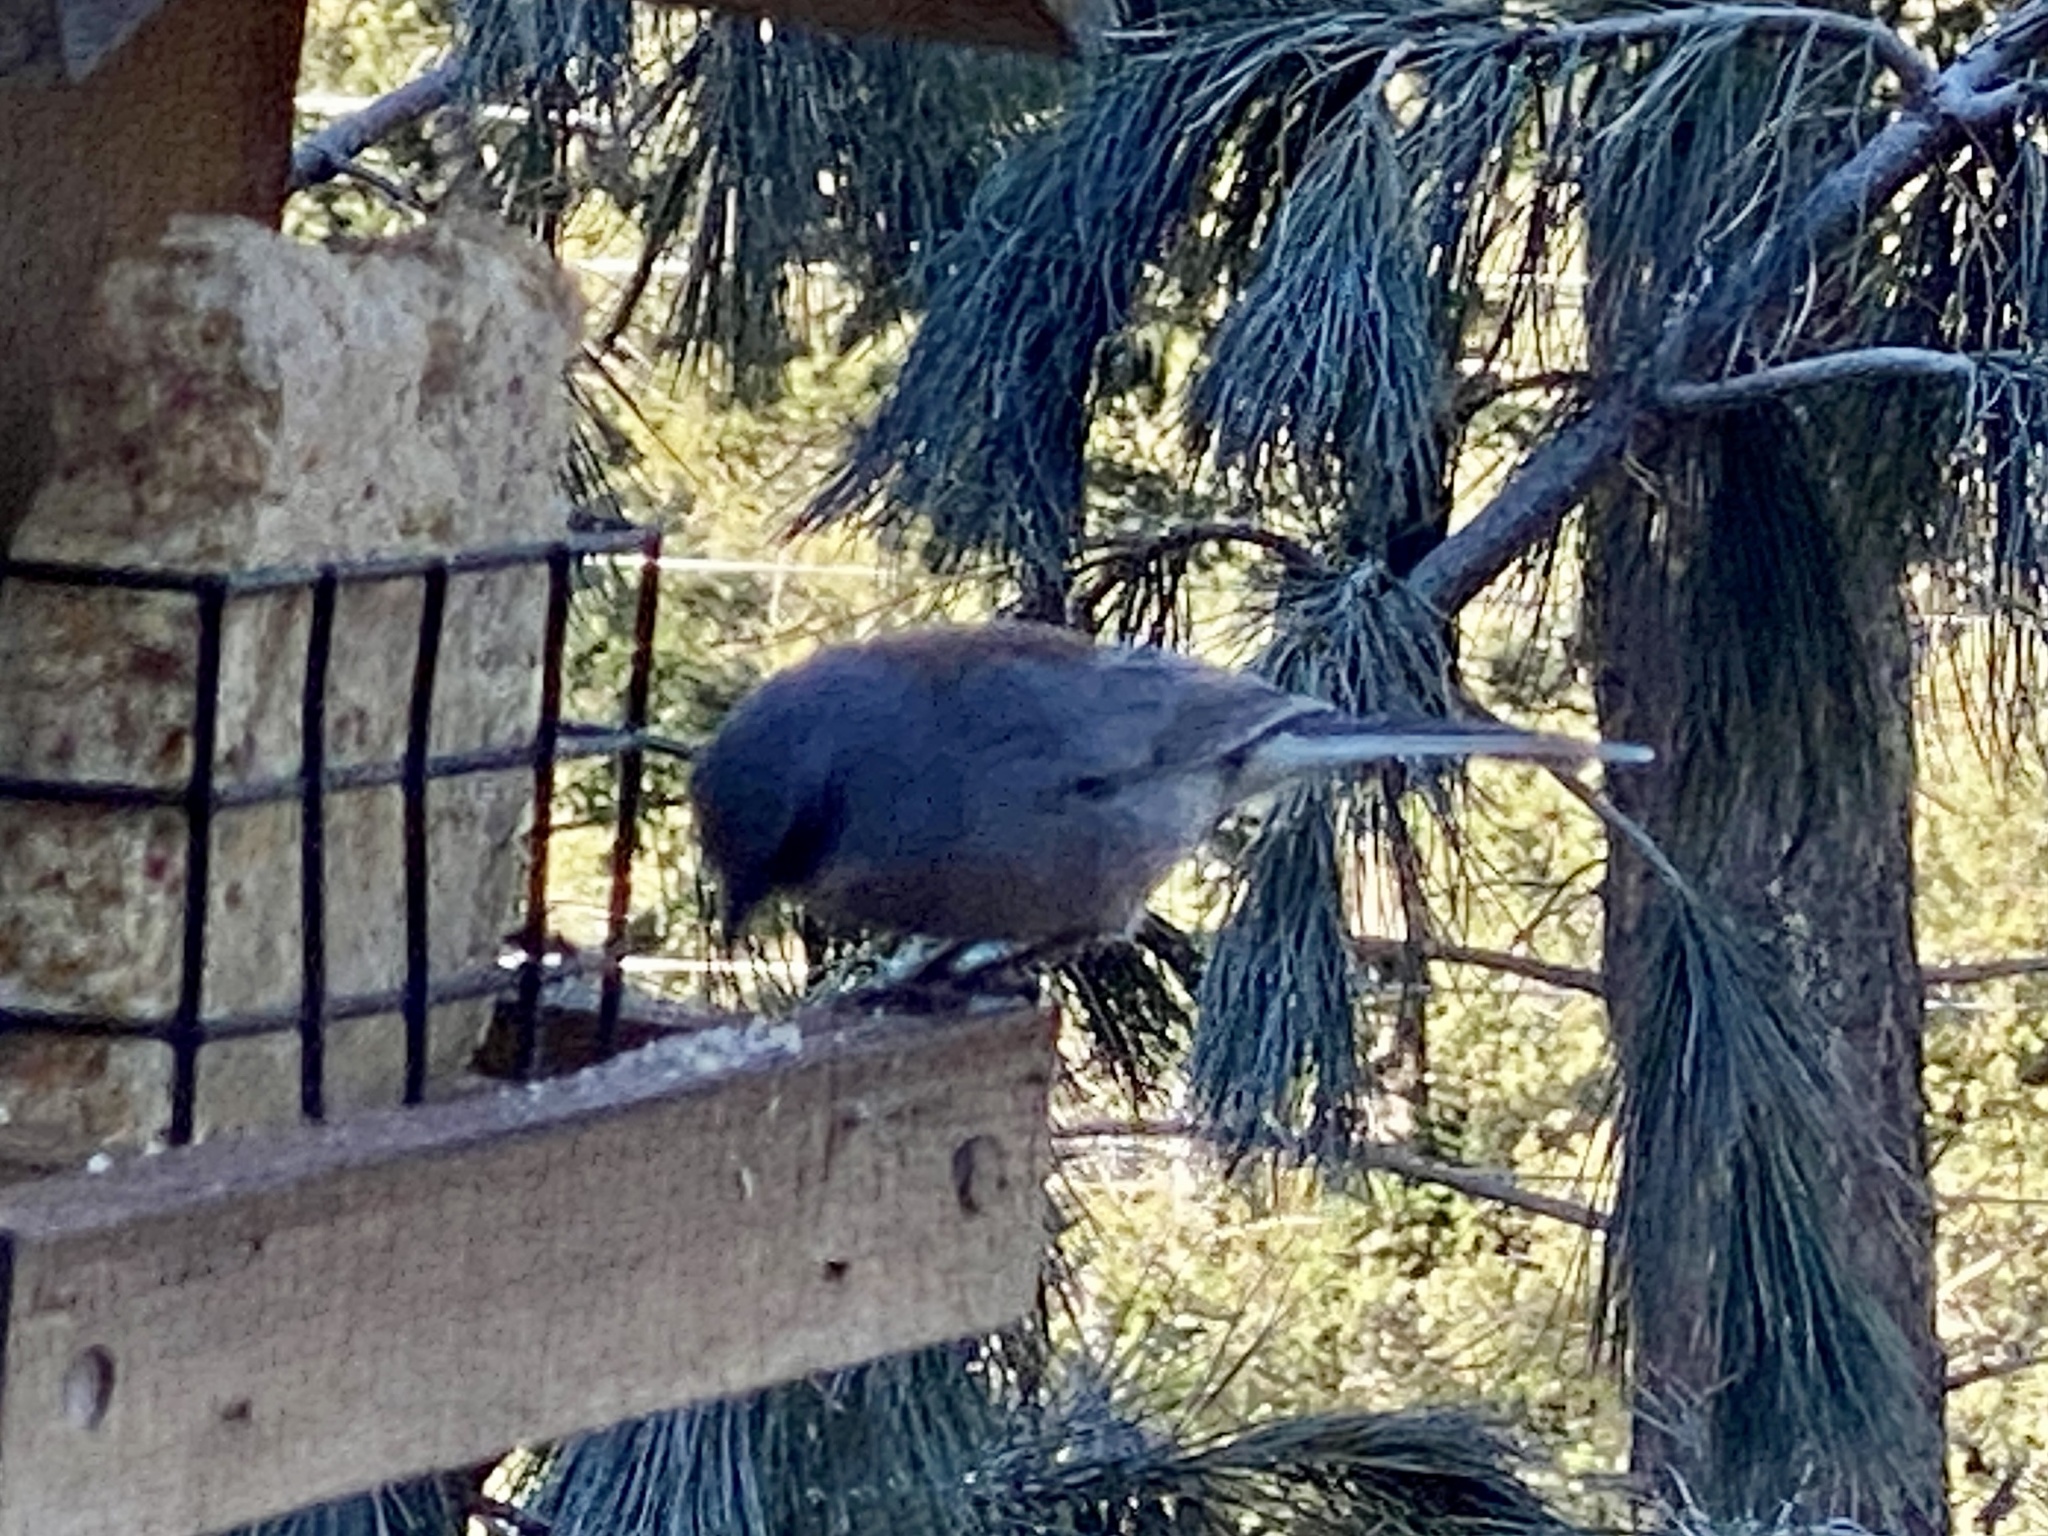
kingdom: Animalia
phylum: Chordata
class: Aves
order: Passeriformes
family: Passerellidae
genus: Junco
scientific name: Junco hyemalis
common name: Dark-eyed junco
